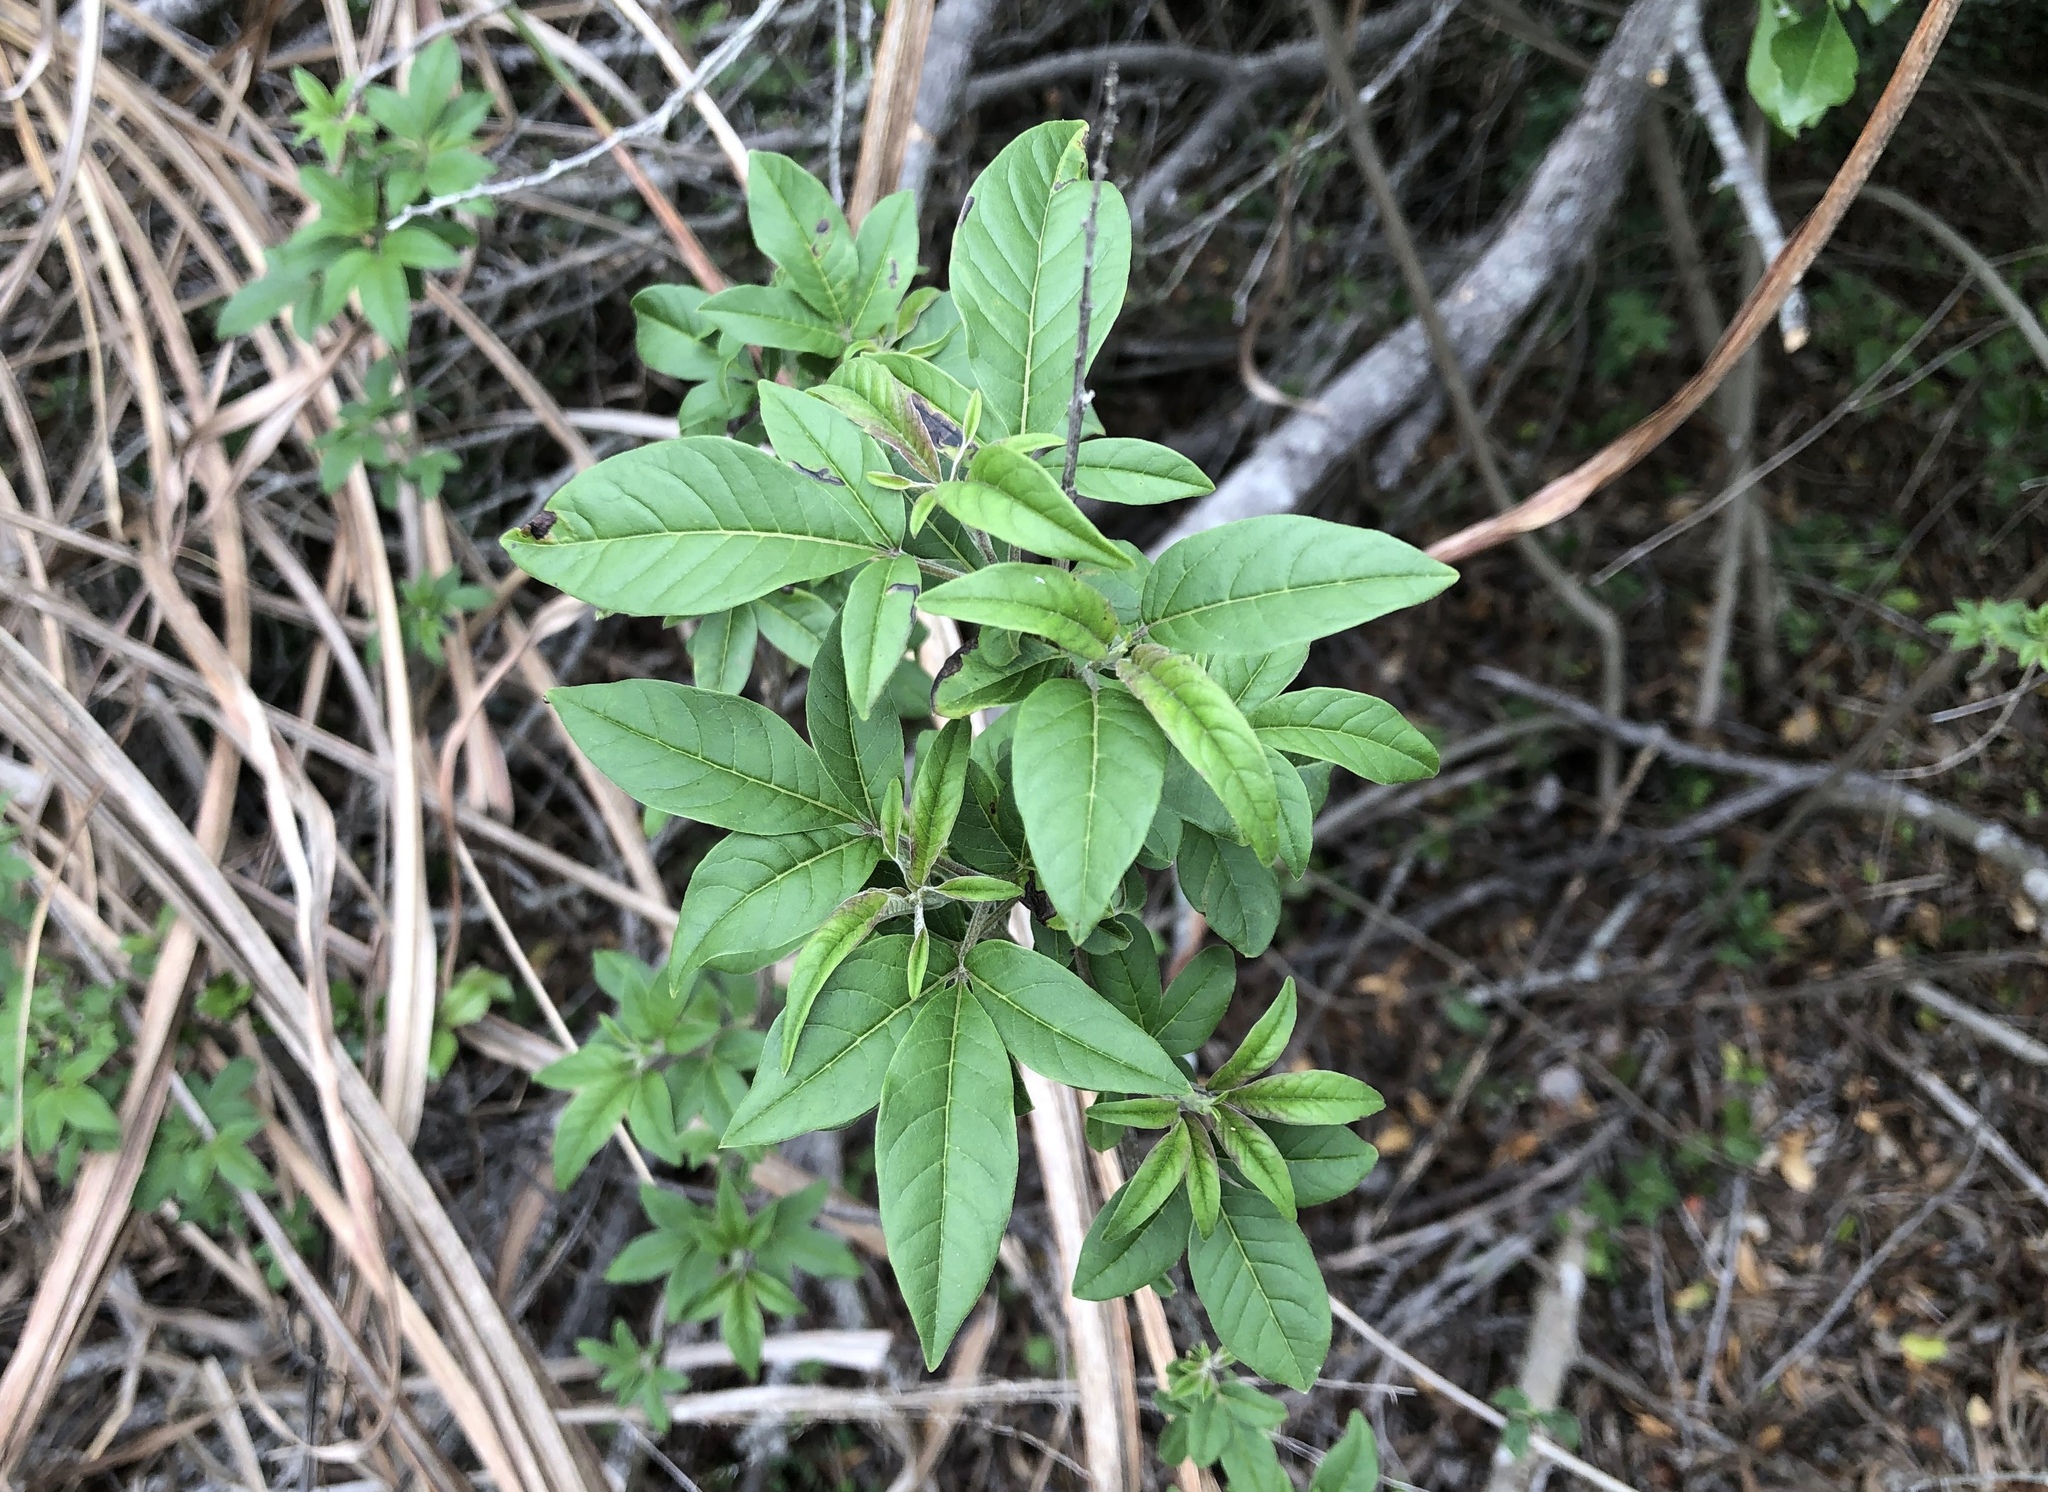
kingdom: Plantae
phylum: Tracheophyta
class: Magnoliopsida
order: Lamiales
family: Lamiaceae
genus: Vitex
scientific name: Vitex negundo
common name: Chinese chastetree
